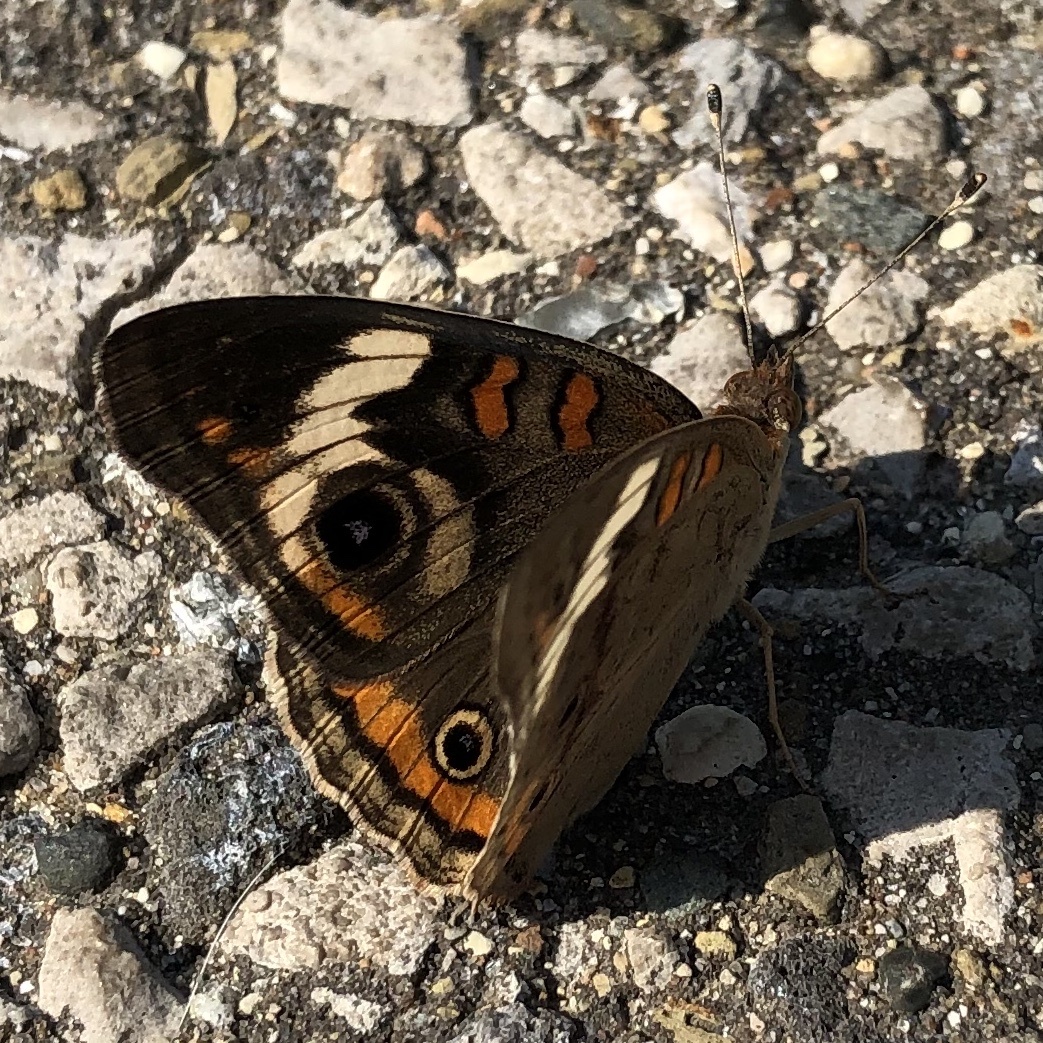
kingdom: Animalia
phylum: Arthropoda
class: Insecta
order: Lepidoptera
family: Nymphalidae
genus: Junonia
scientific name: Junonia coenia
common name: Common buckeye
